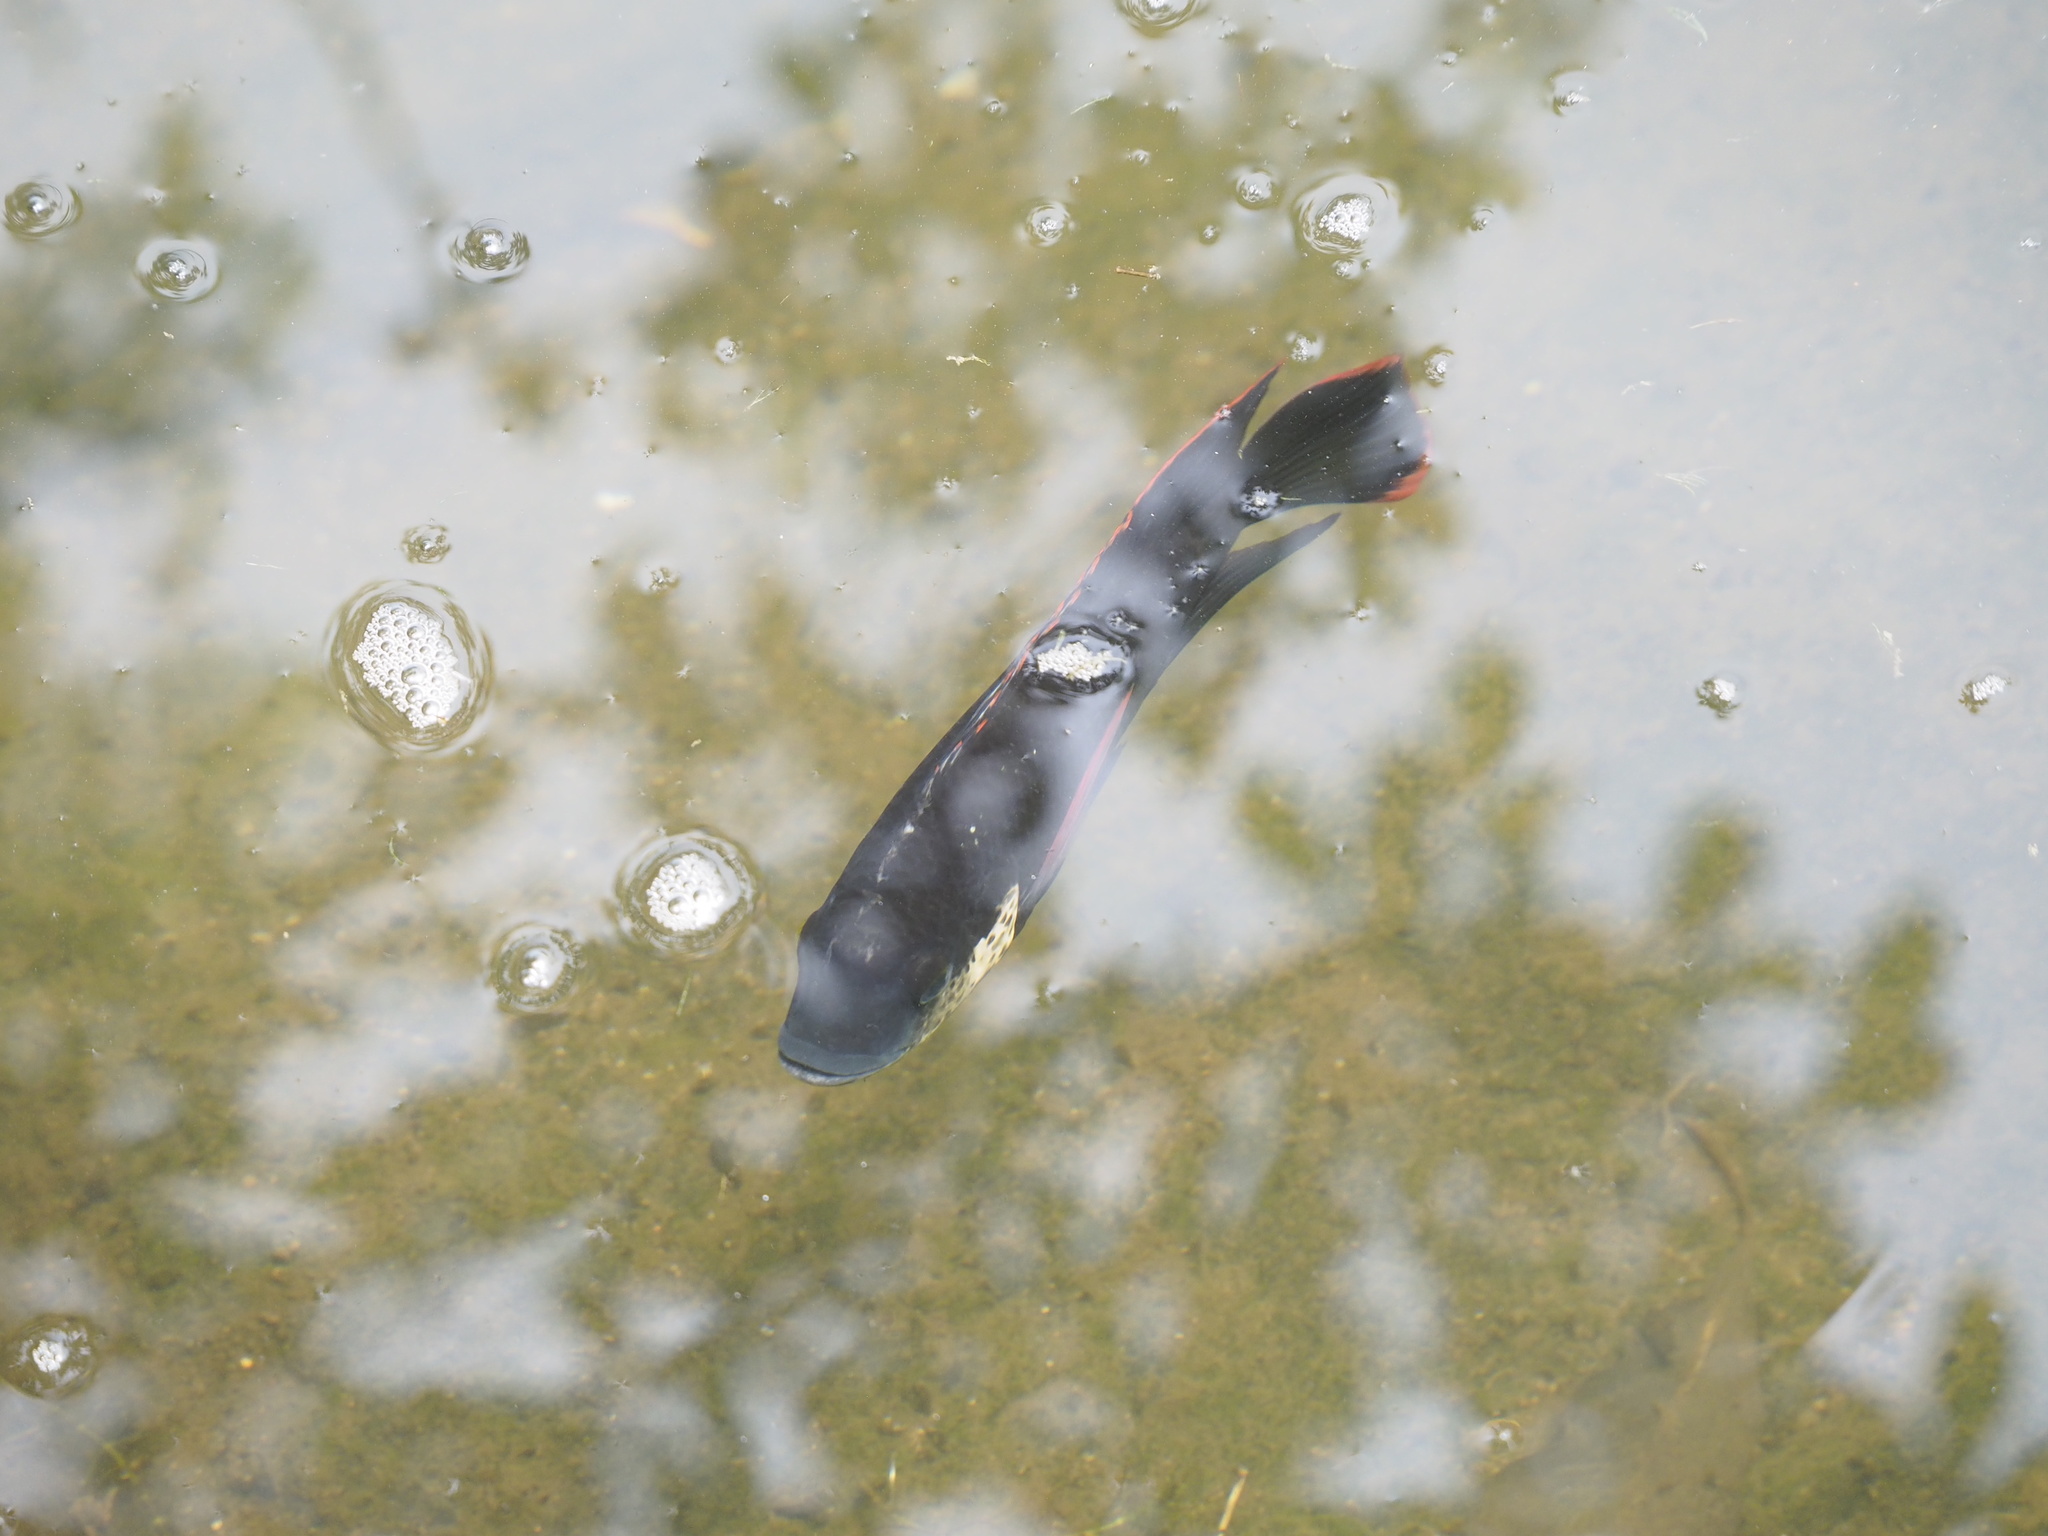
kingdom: Animalia
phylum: Chordata
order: Perciformes
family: Cichlidae
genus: Oreochromis
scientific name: Oreochromis mossambicus
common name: Mozambique tilapia
